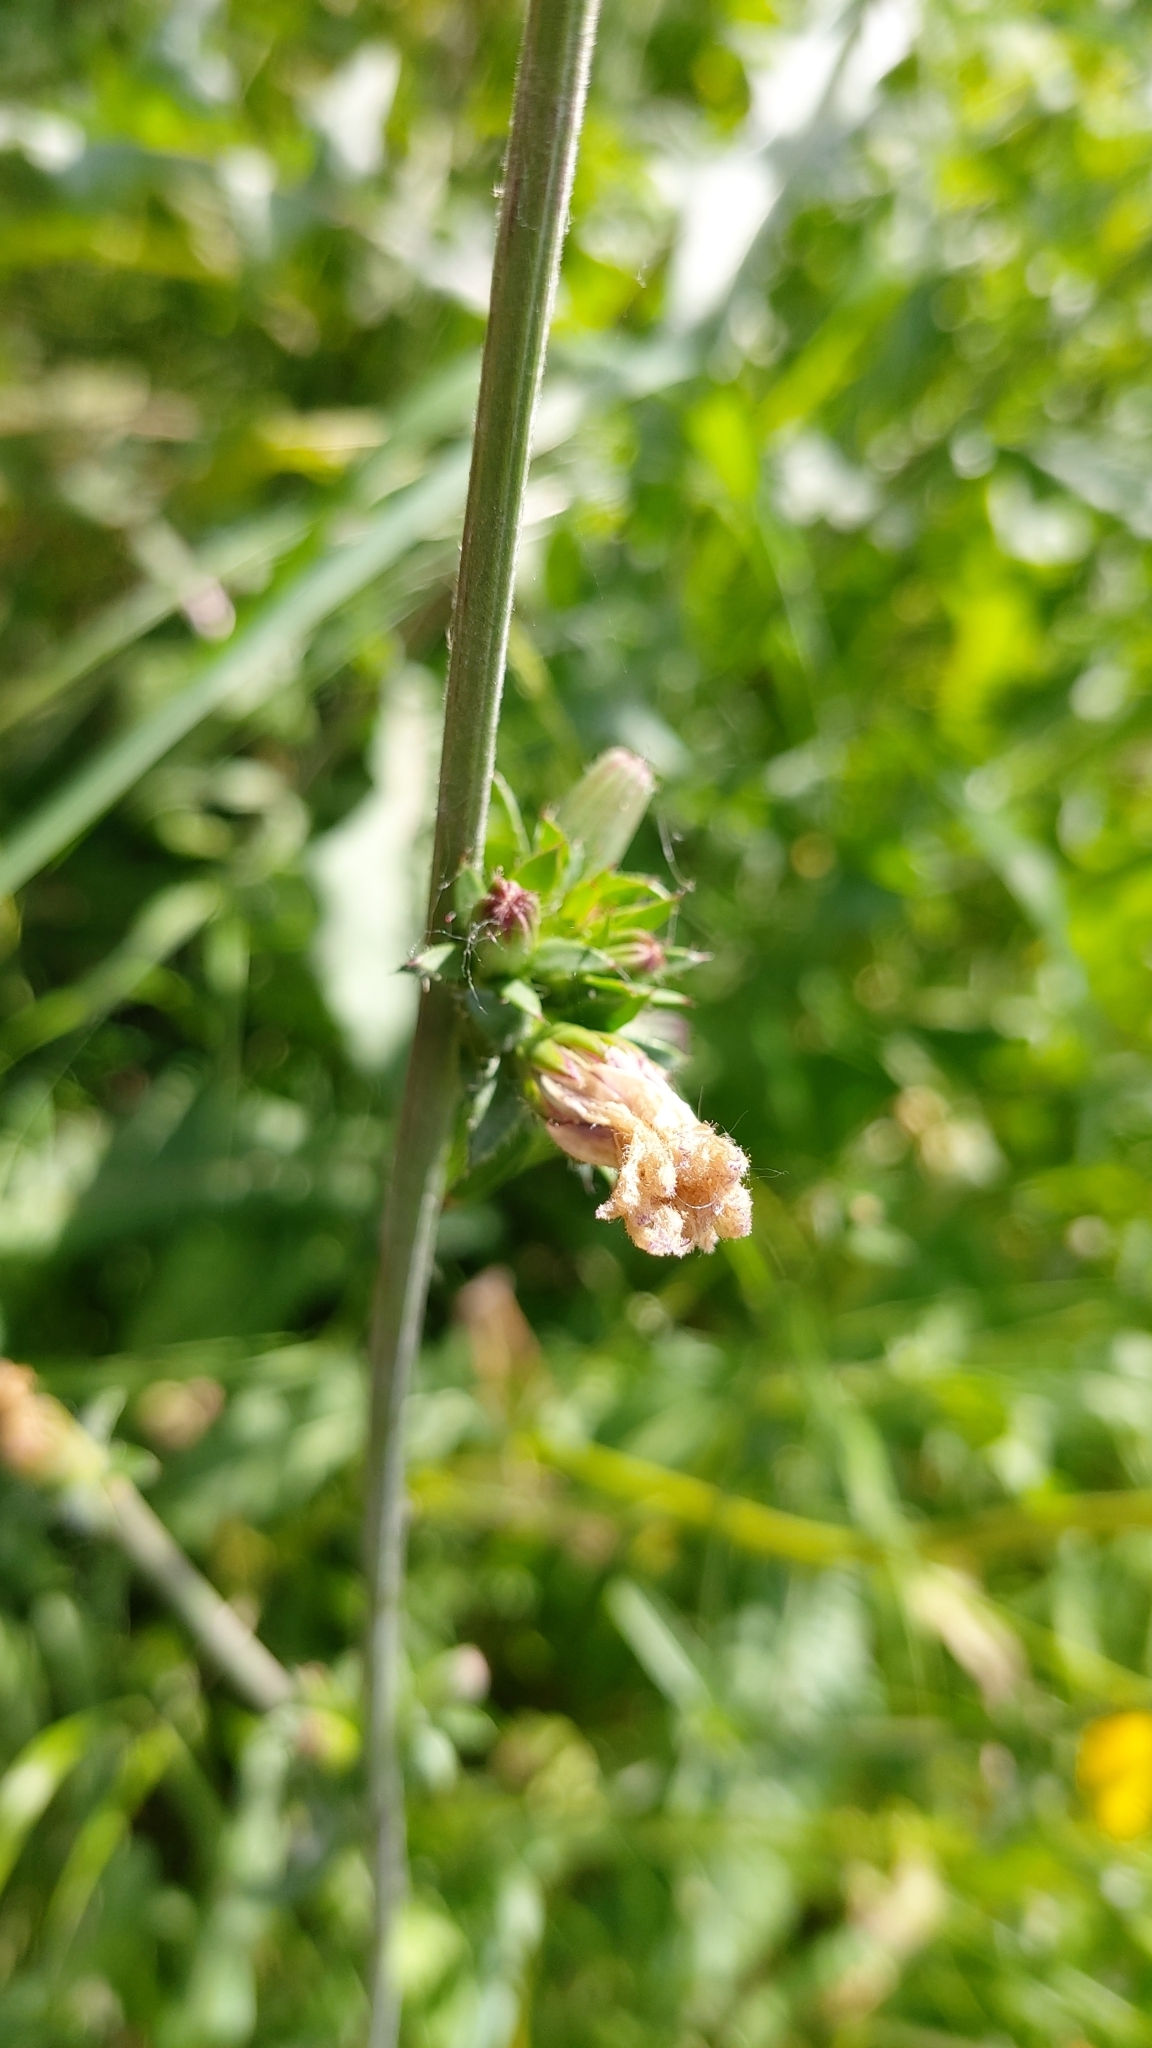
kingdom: Plantae
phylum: Tracheophyta
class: Magnoliopsida
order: Asterales
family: Asteraceae
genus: Cichorium
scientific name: Cichorium intybus
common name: Chicory
